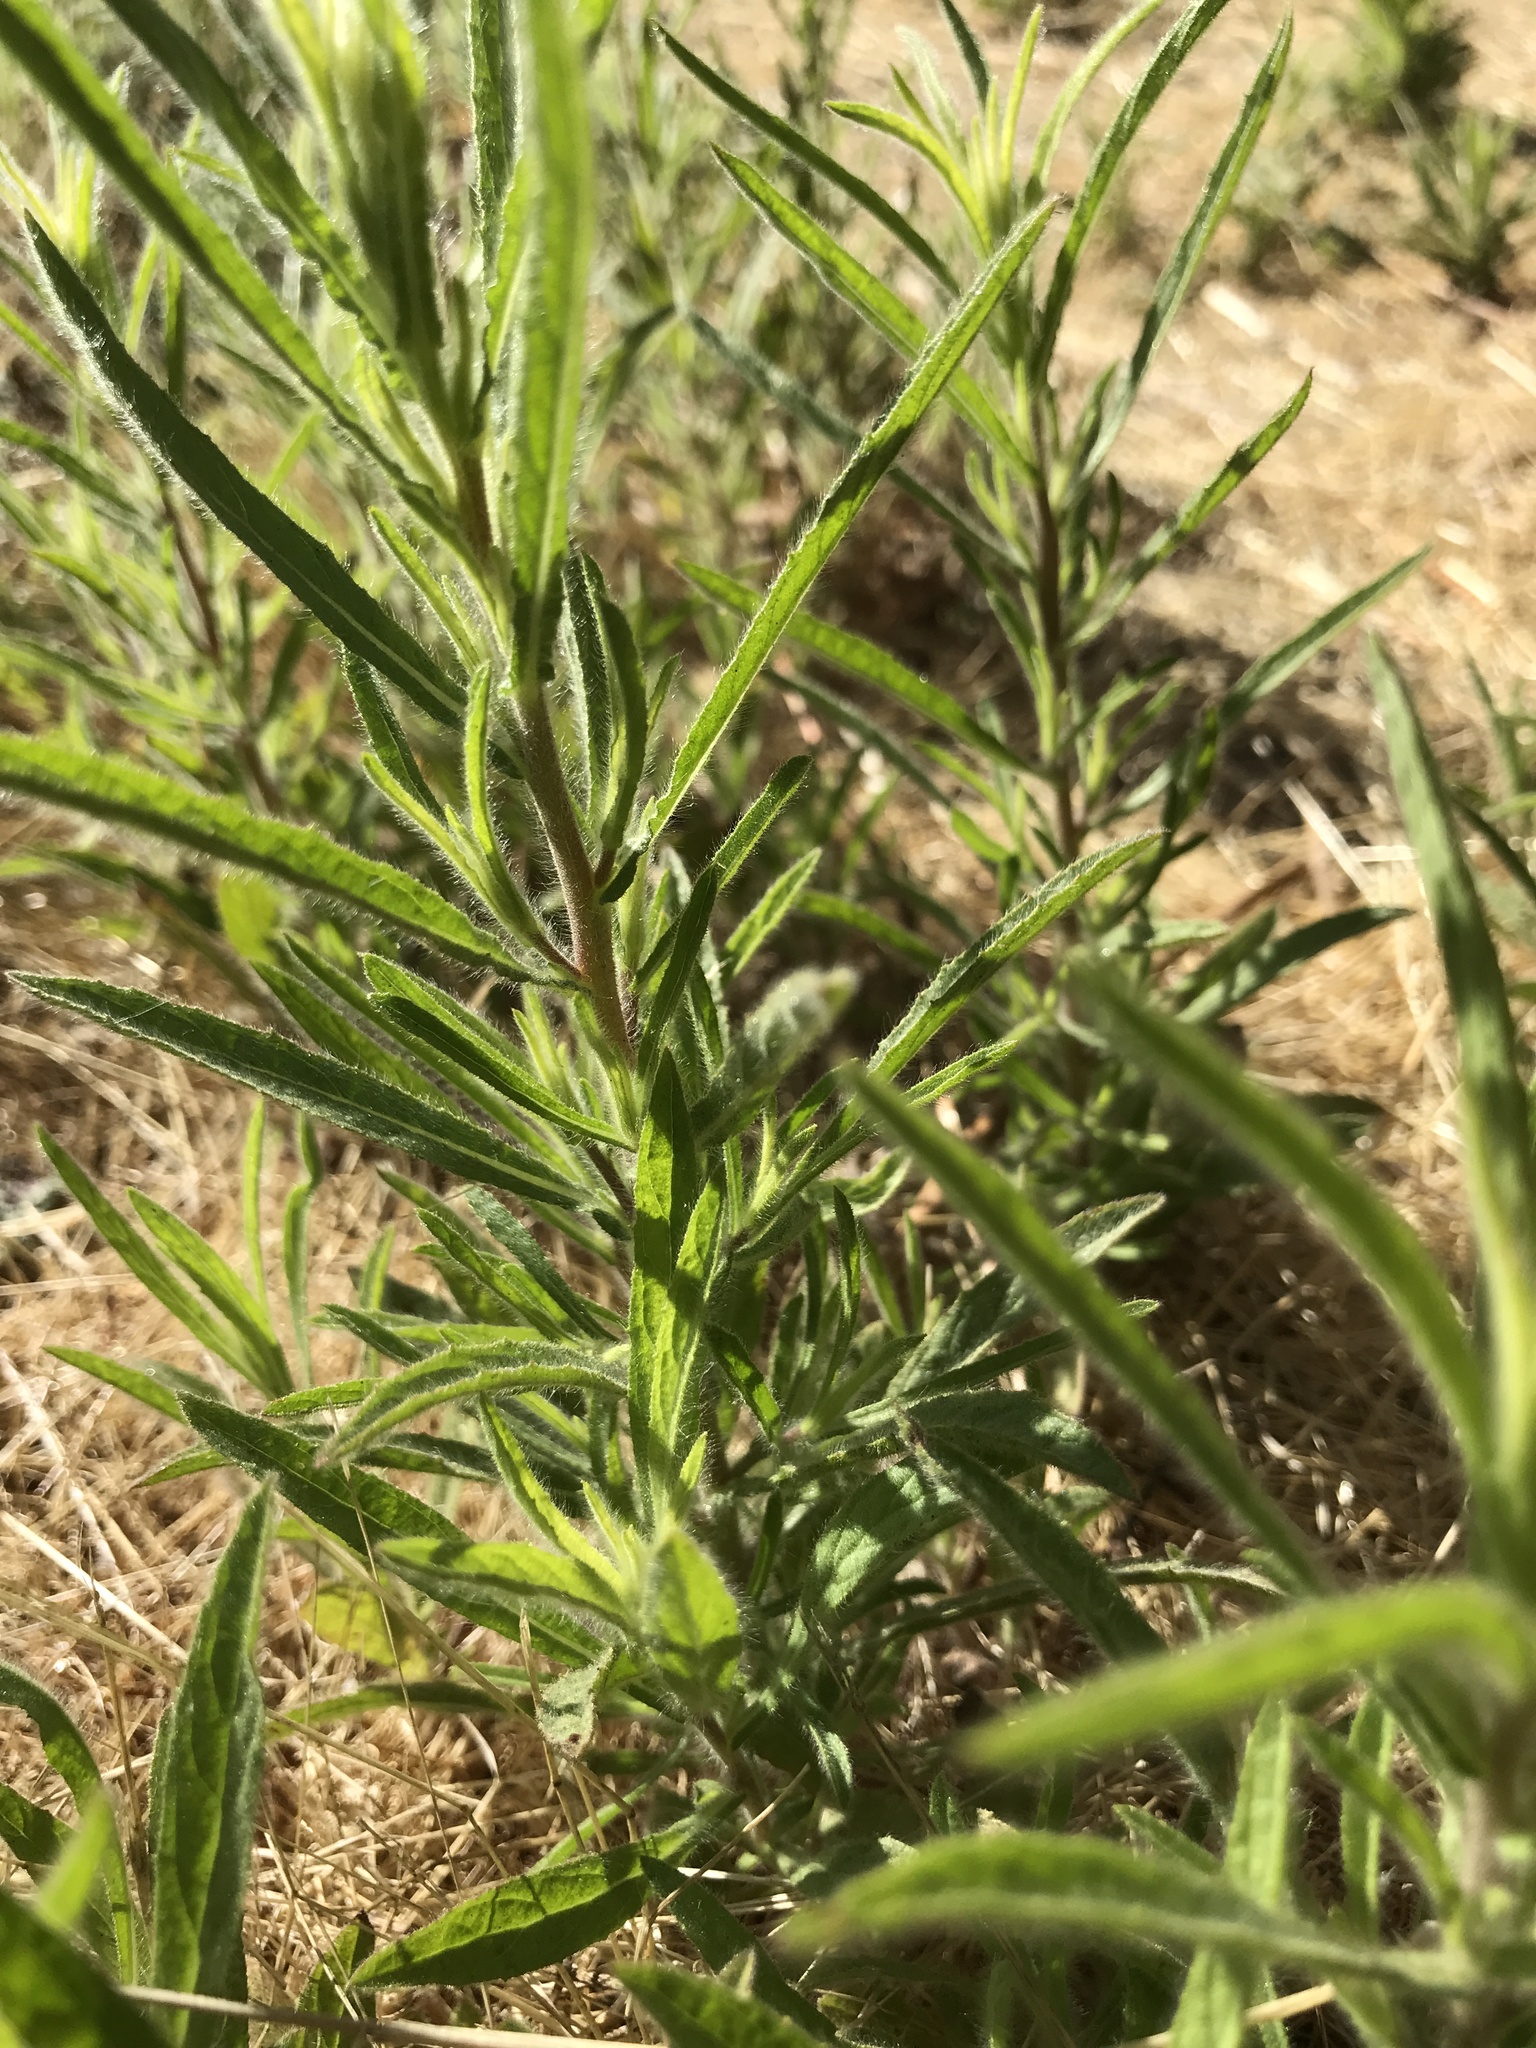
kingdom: Plantae
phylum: Tracheophyta
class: Magnoliopsida
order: Asterales
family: Asteraceae
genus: Dittrichia
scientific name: Dittrichia graveolens
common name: Stinking fleabane
